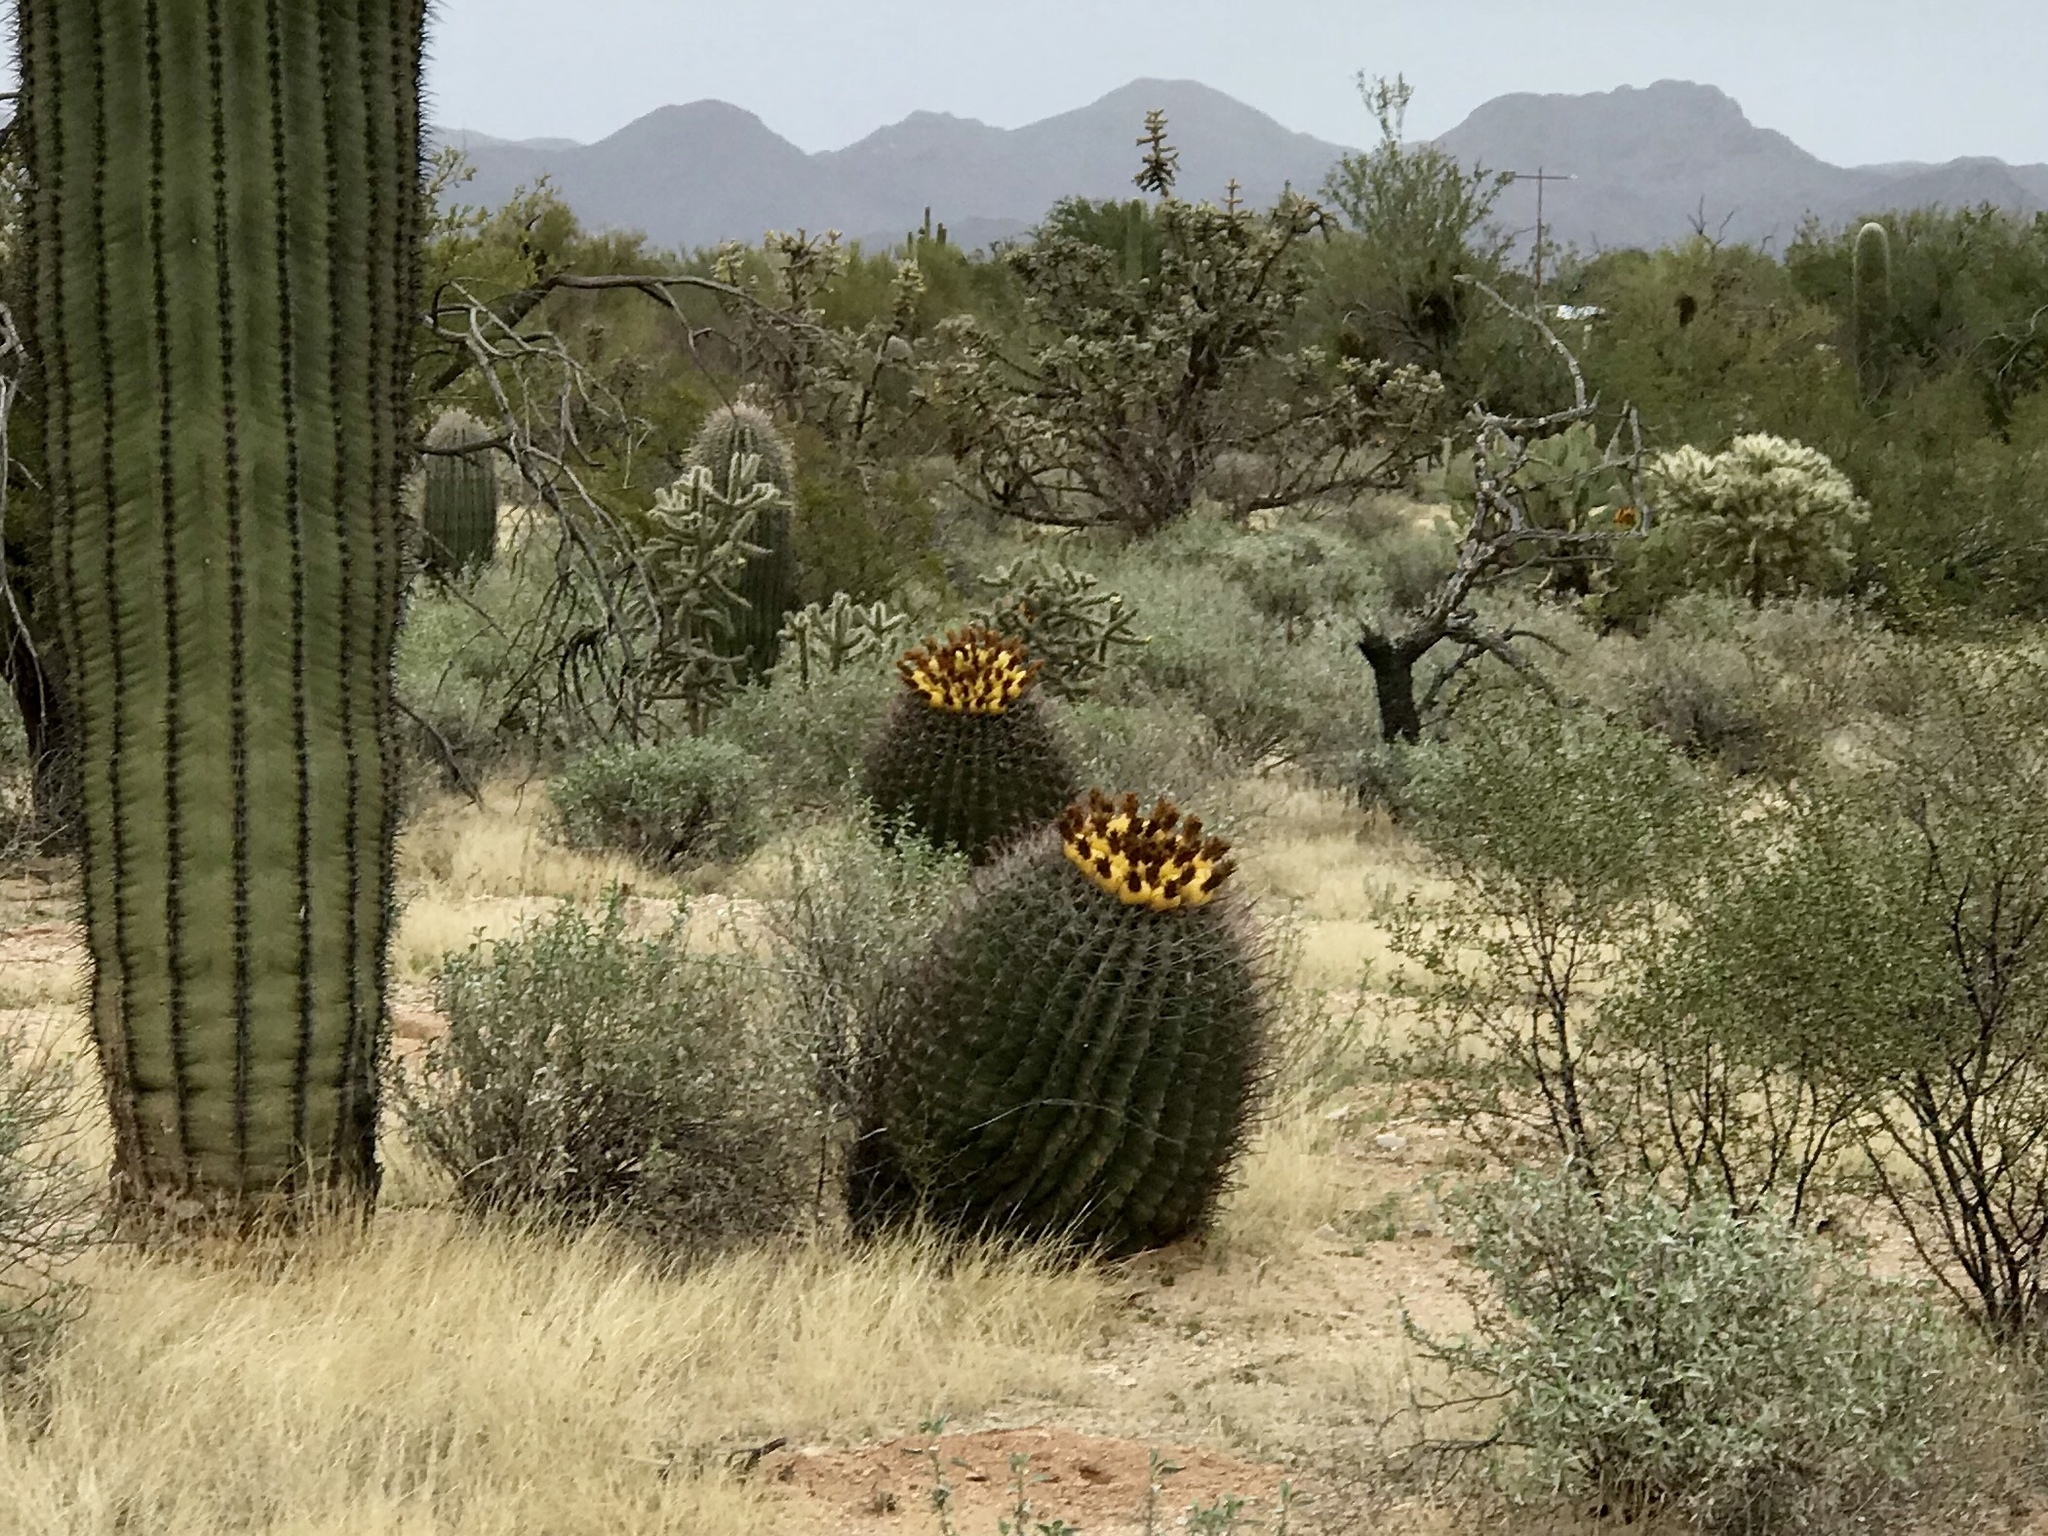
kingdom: Plantae
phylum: Tracheophyta
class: Magnoliopsida
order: Caryophyllales
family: Cactaceae
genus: Ferocactus
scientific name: Ferocactus wislizeni
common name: Candy barrel cactus
